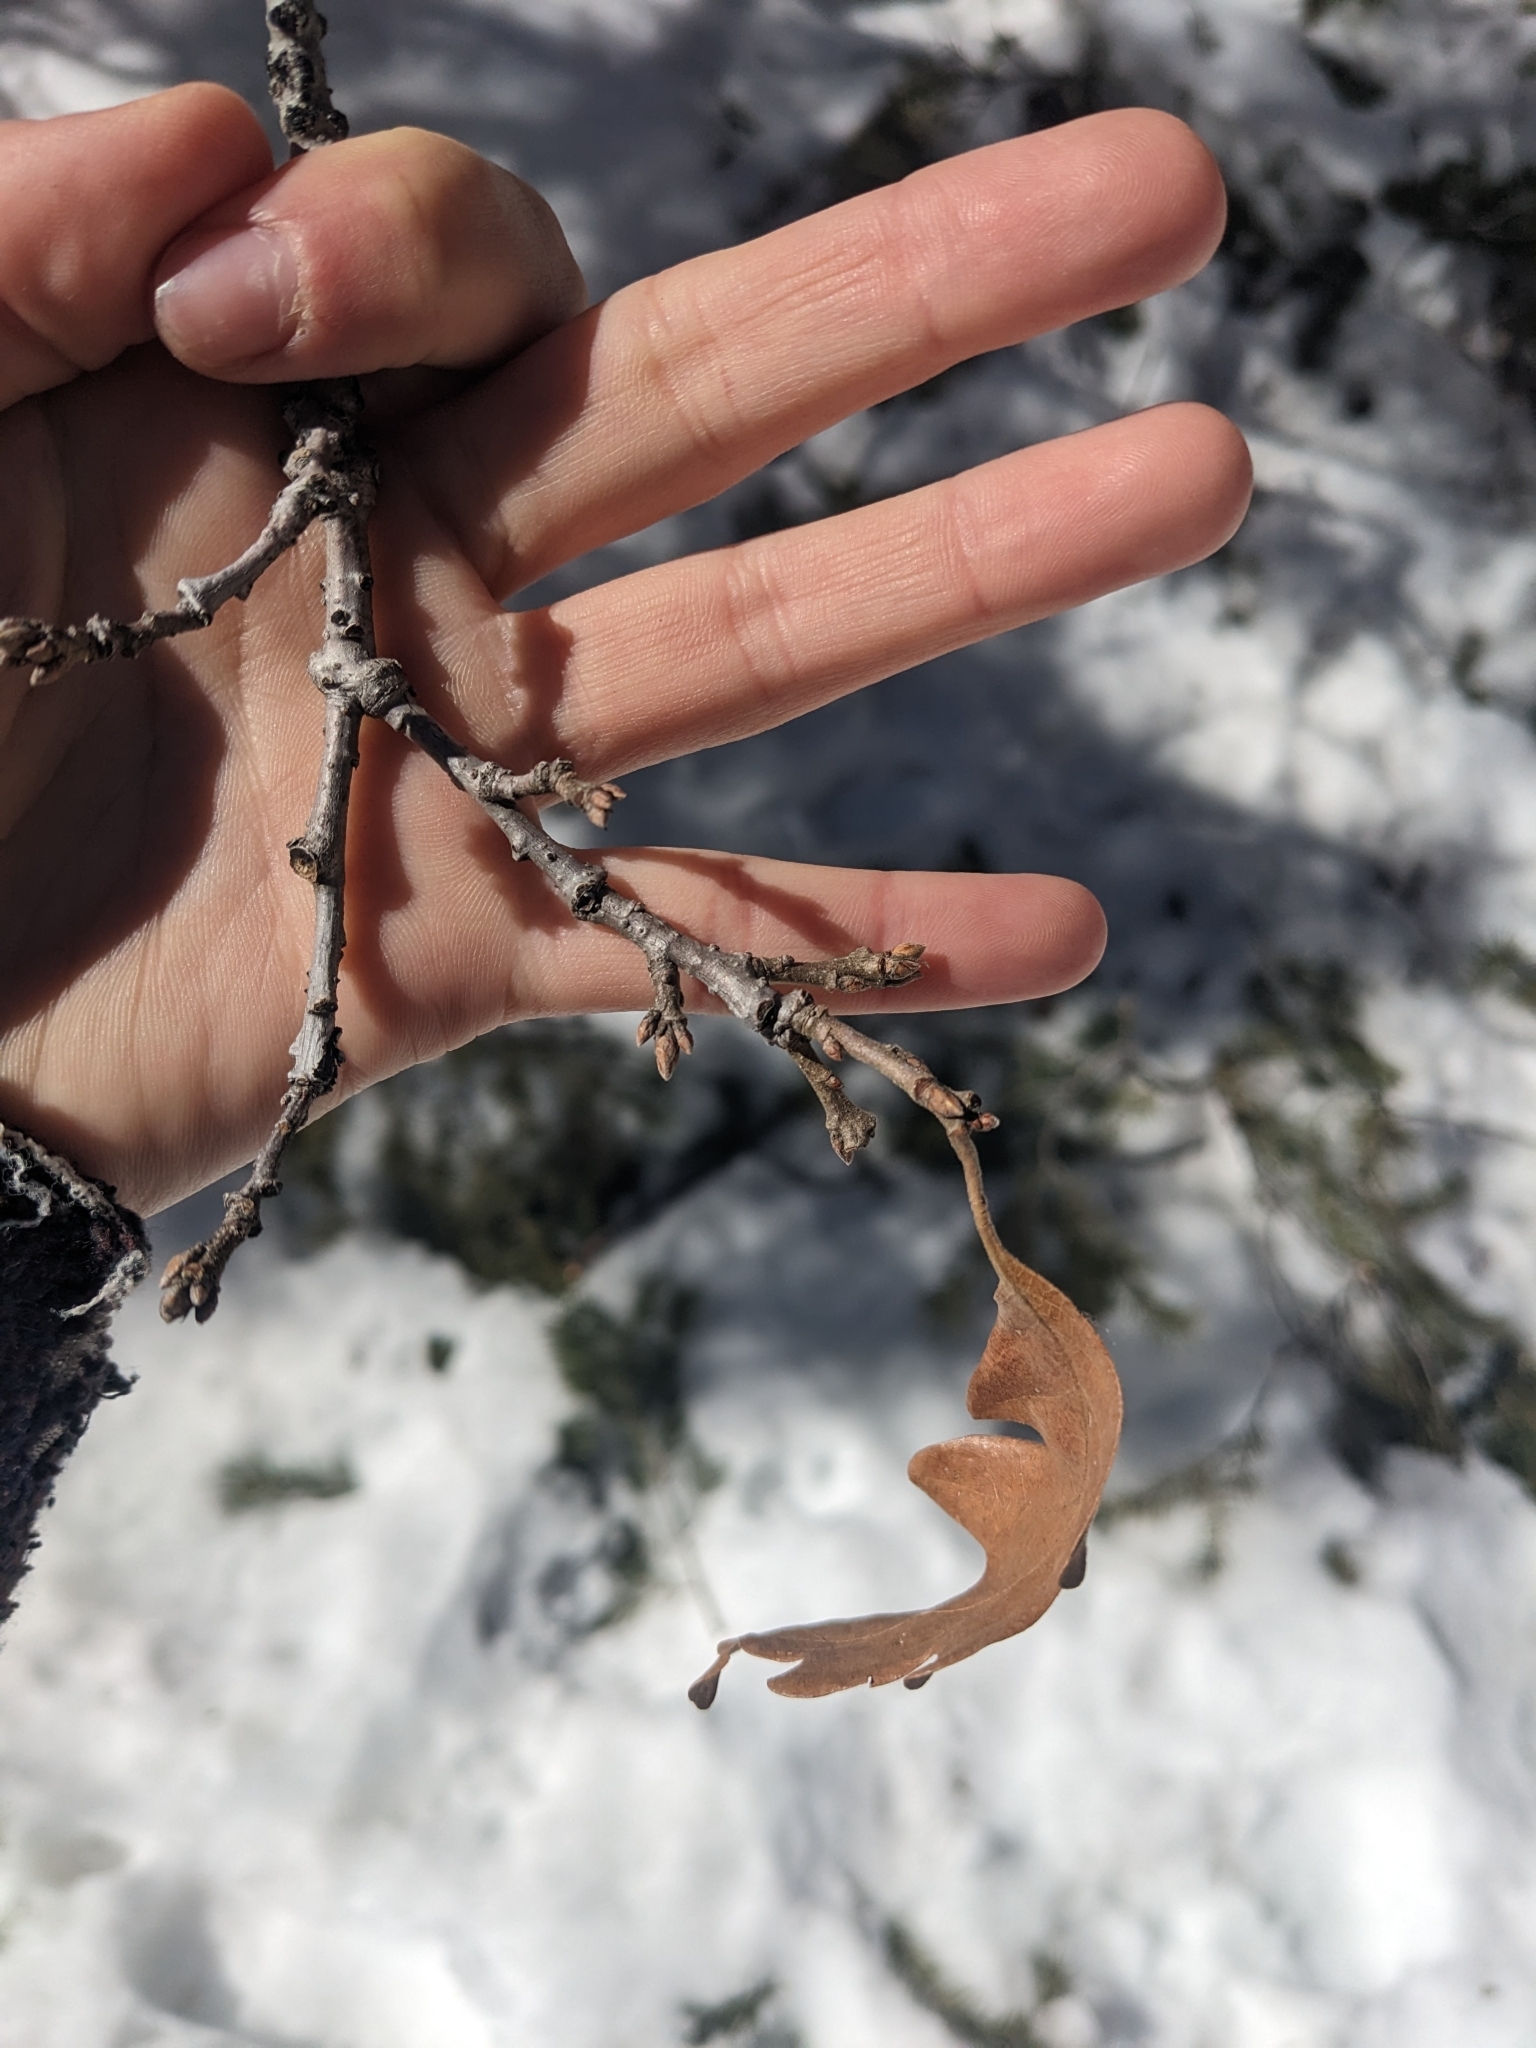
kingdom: Plantae
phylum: Tracheophyta
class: Magnoliopsida
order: Fagales
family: Fagaceae
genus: Quercus
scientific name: Quercus gambelii
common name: Gambel oak
